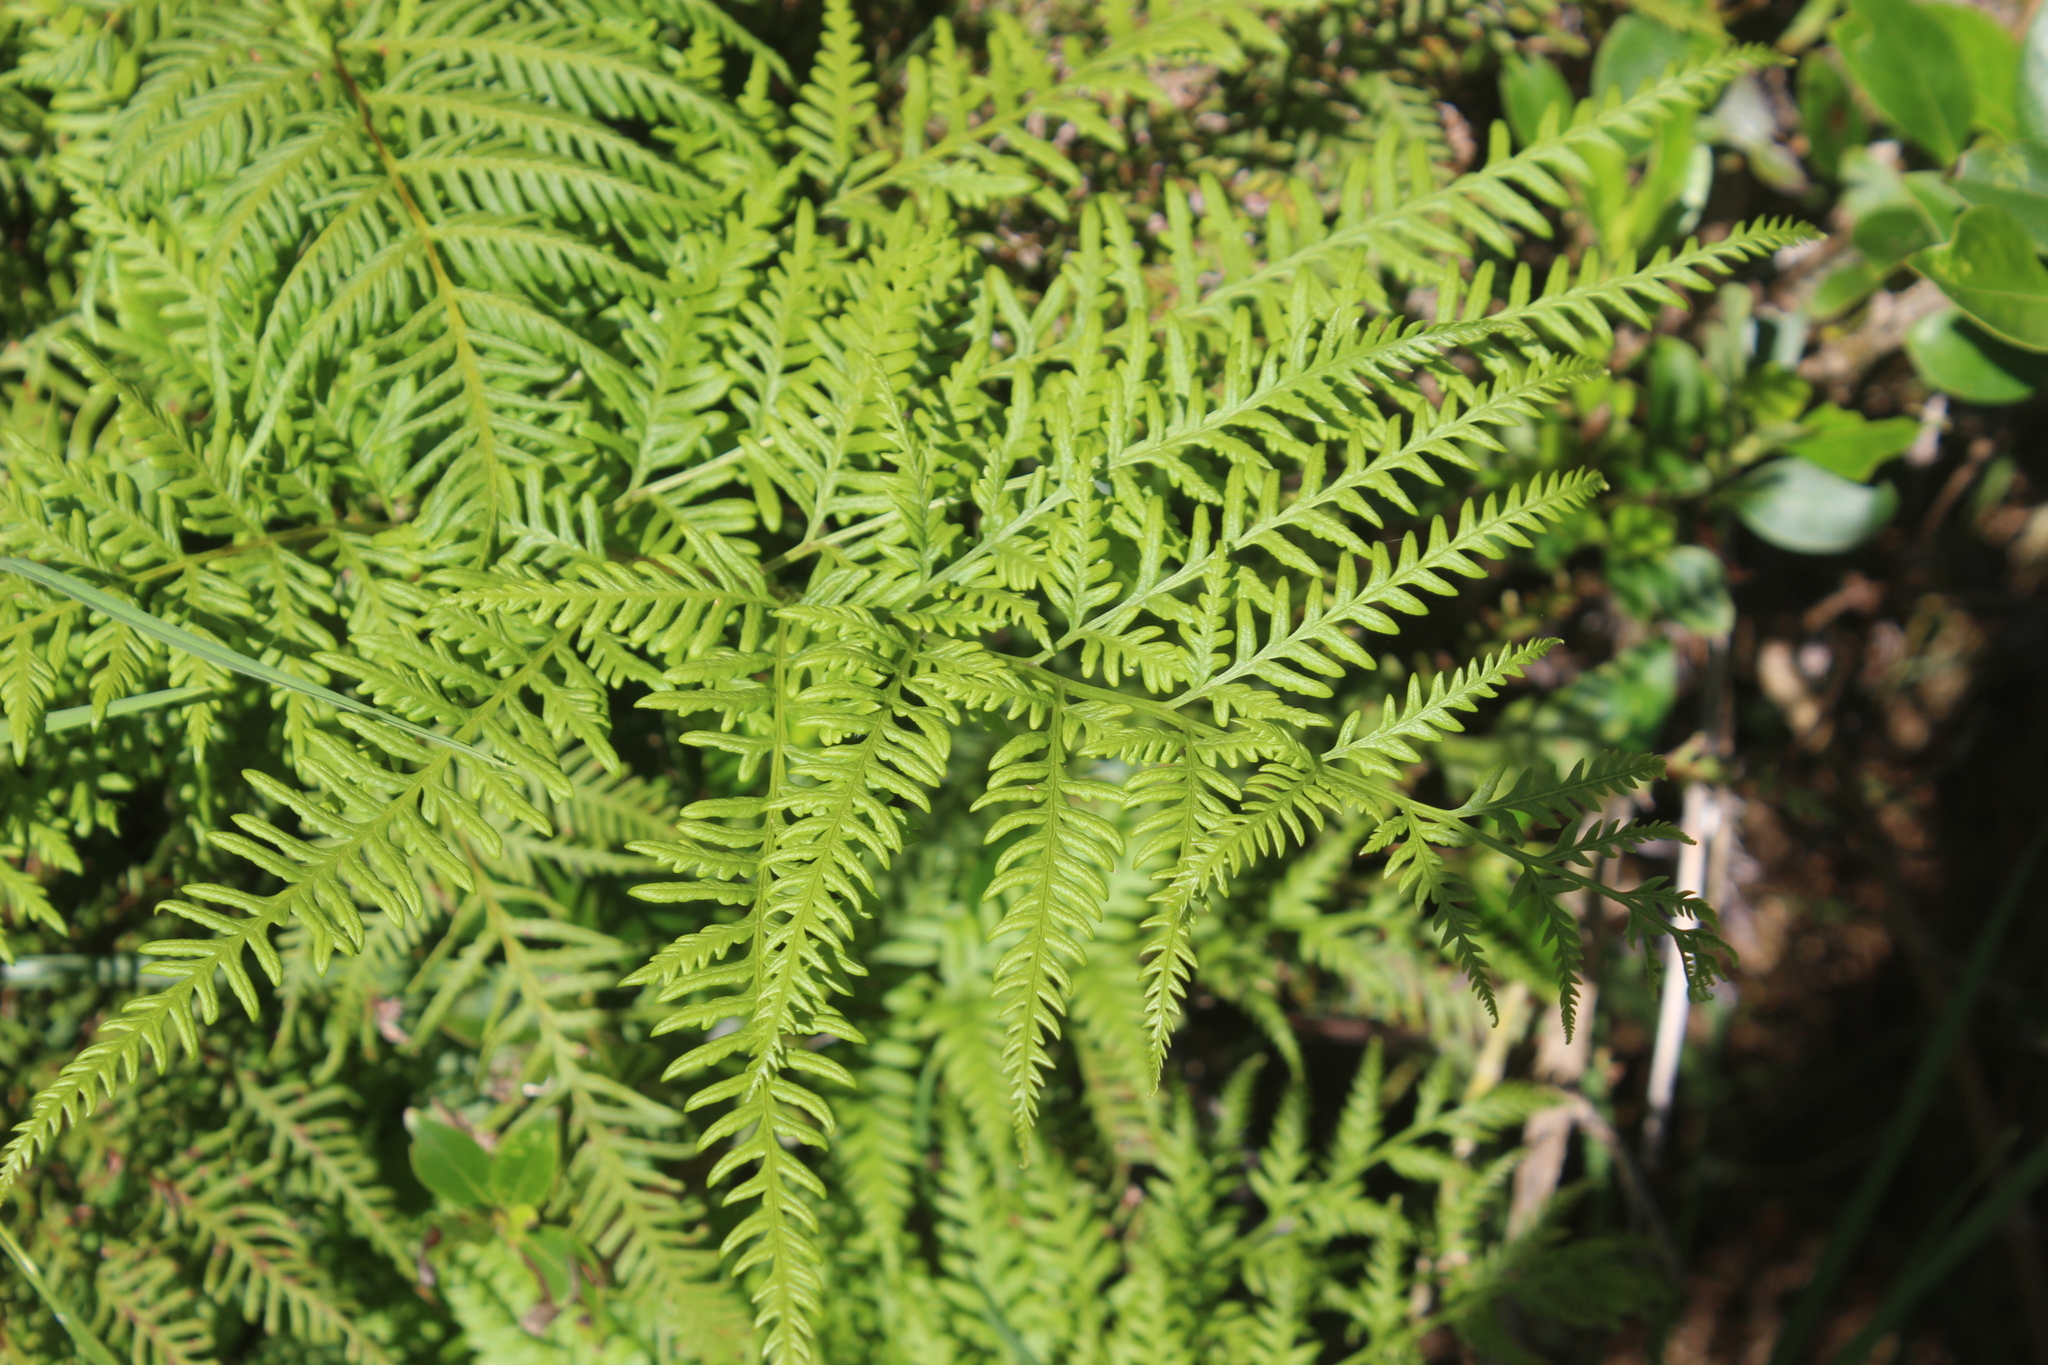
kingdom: Plantae
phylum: Tracheophyta
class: Polypodiopsida
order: Polypodiales
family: Pteridaceae
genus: Pteris
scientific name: Pteris tremula
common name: Australian brake
